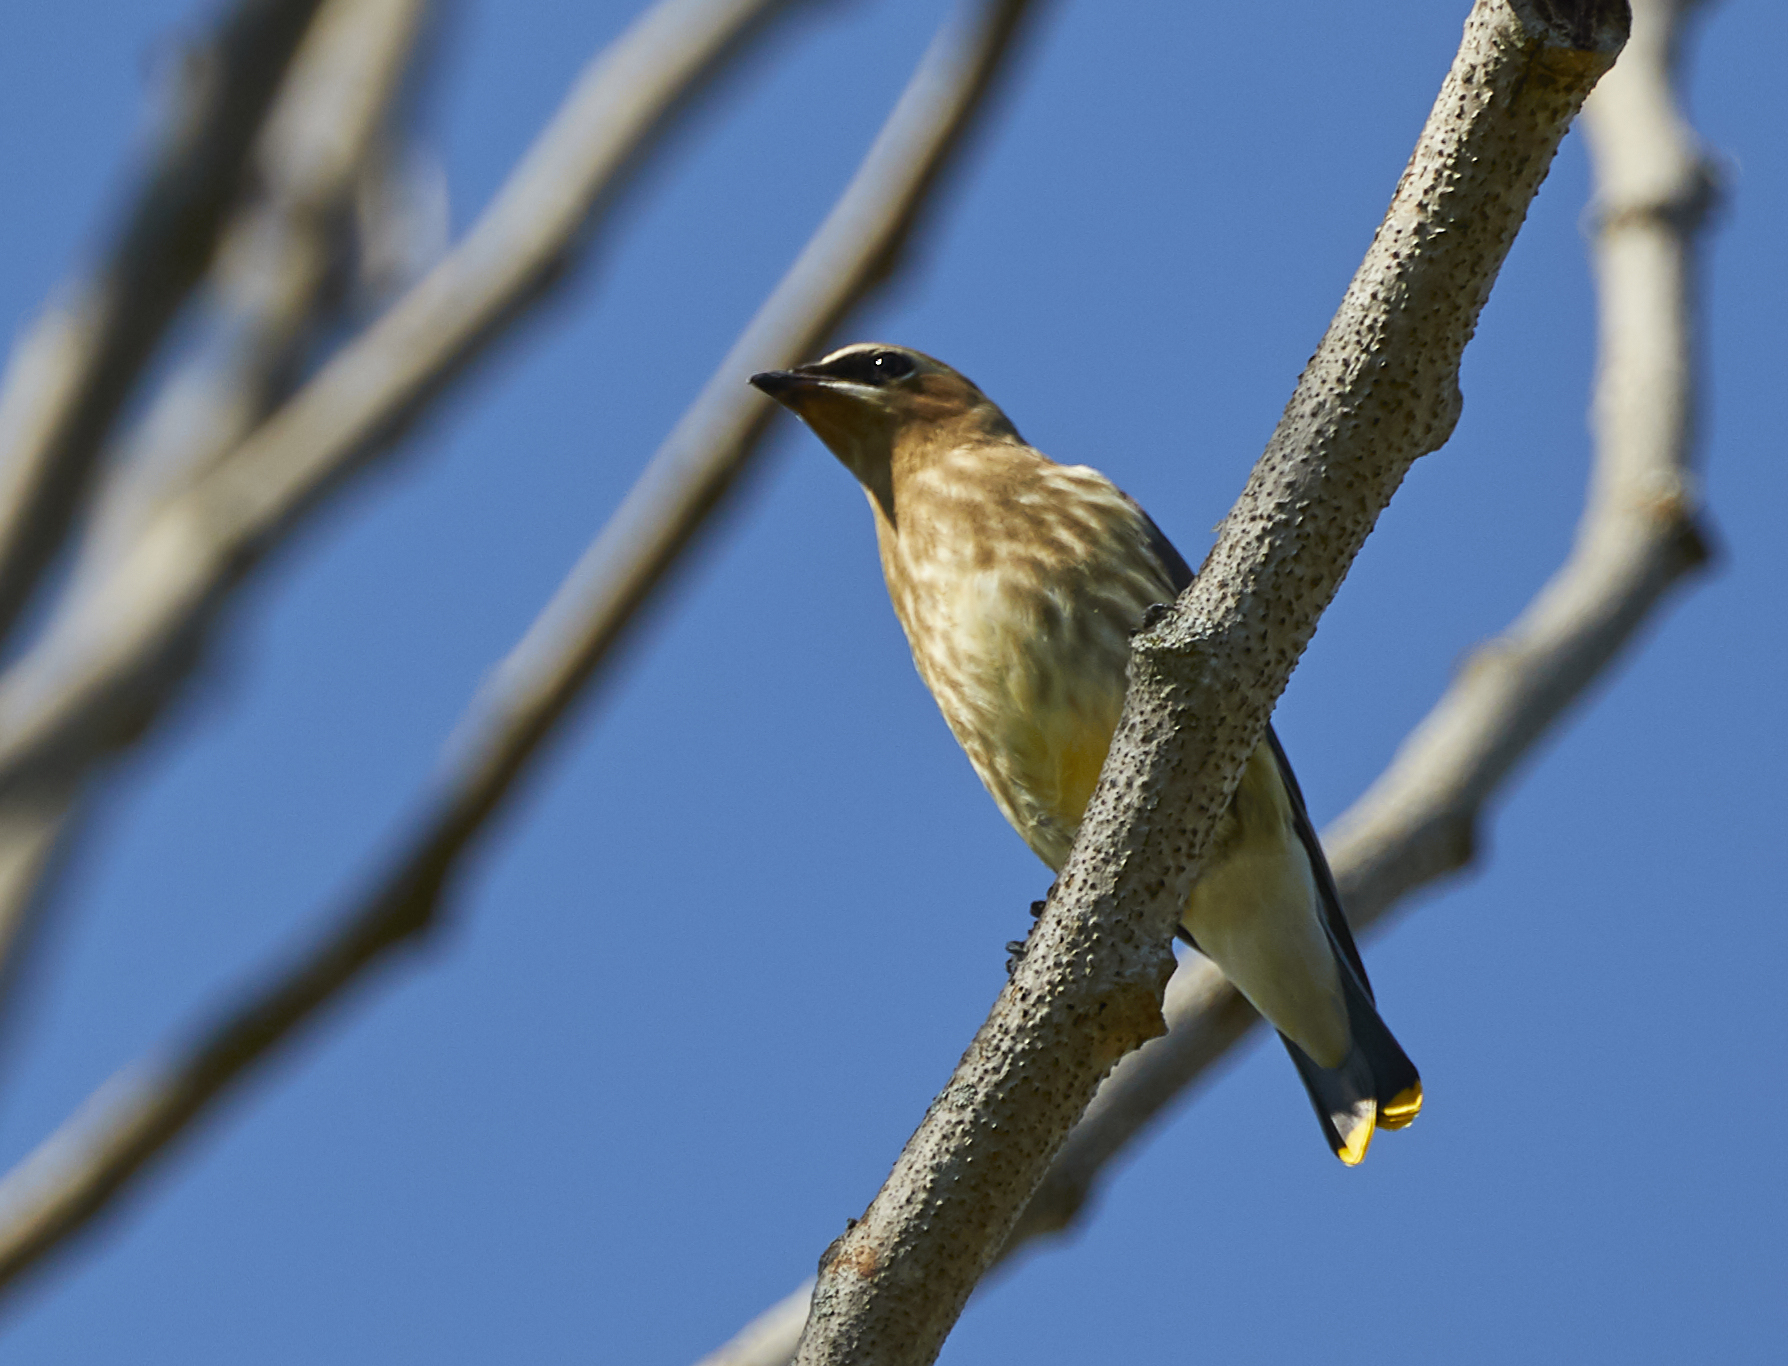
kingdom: Animalia
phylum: Chordata
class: Aves
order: Passeriformes
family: Bombycillidae
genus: Bombycilla
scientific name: Bombycilla cedrorum
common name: Cedar waxwing
